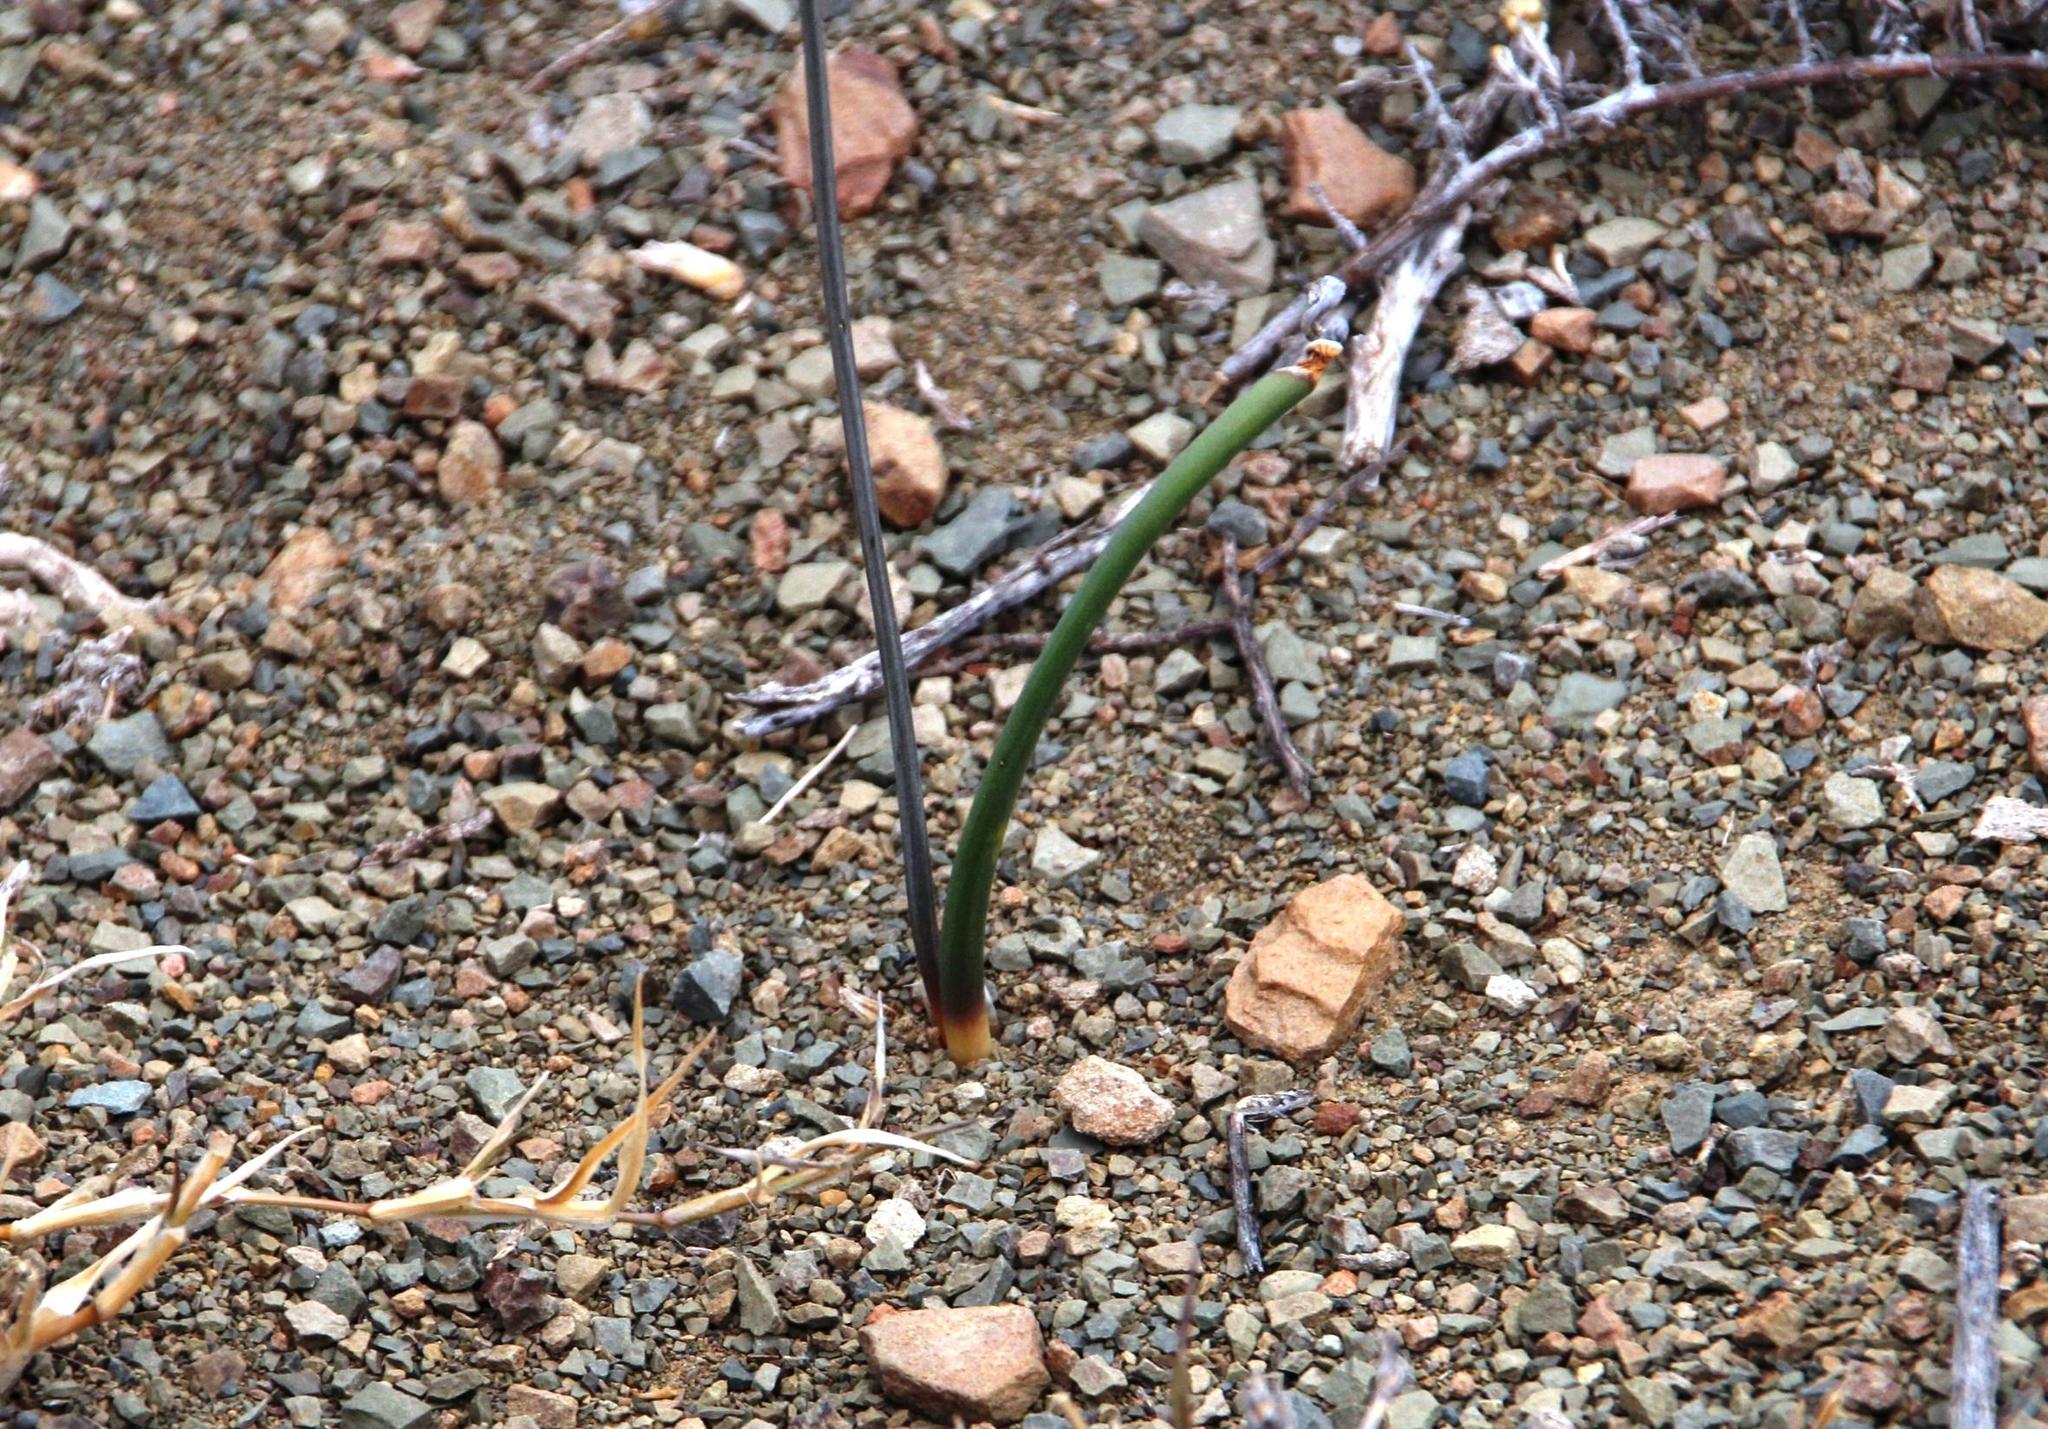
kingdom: Plantae
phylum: Tracheophyta
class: Liliopsida
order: Asparagales
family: Asparagaceae
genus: Drimia
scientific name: Drimia anomala
